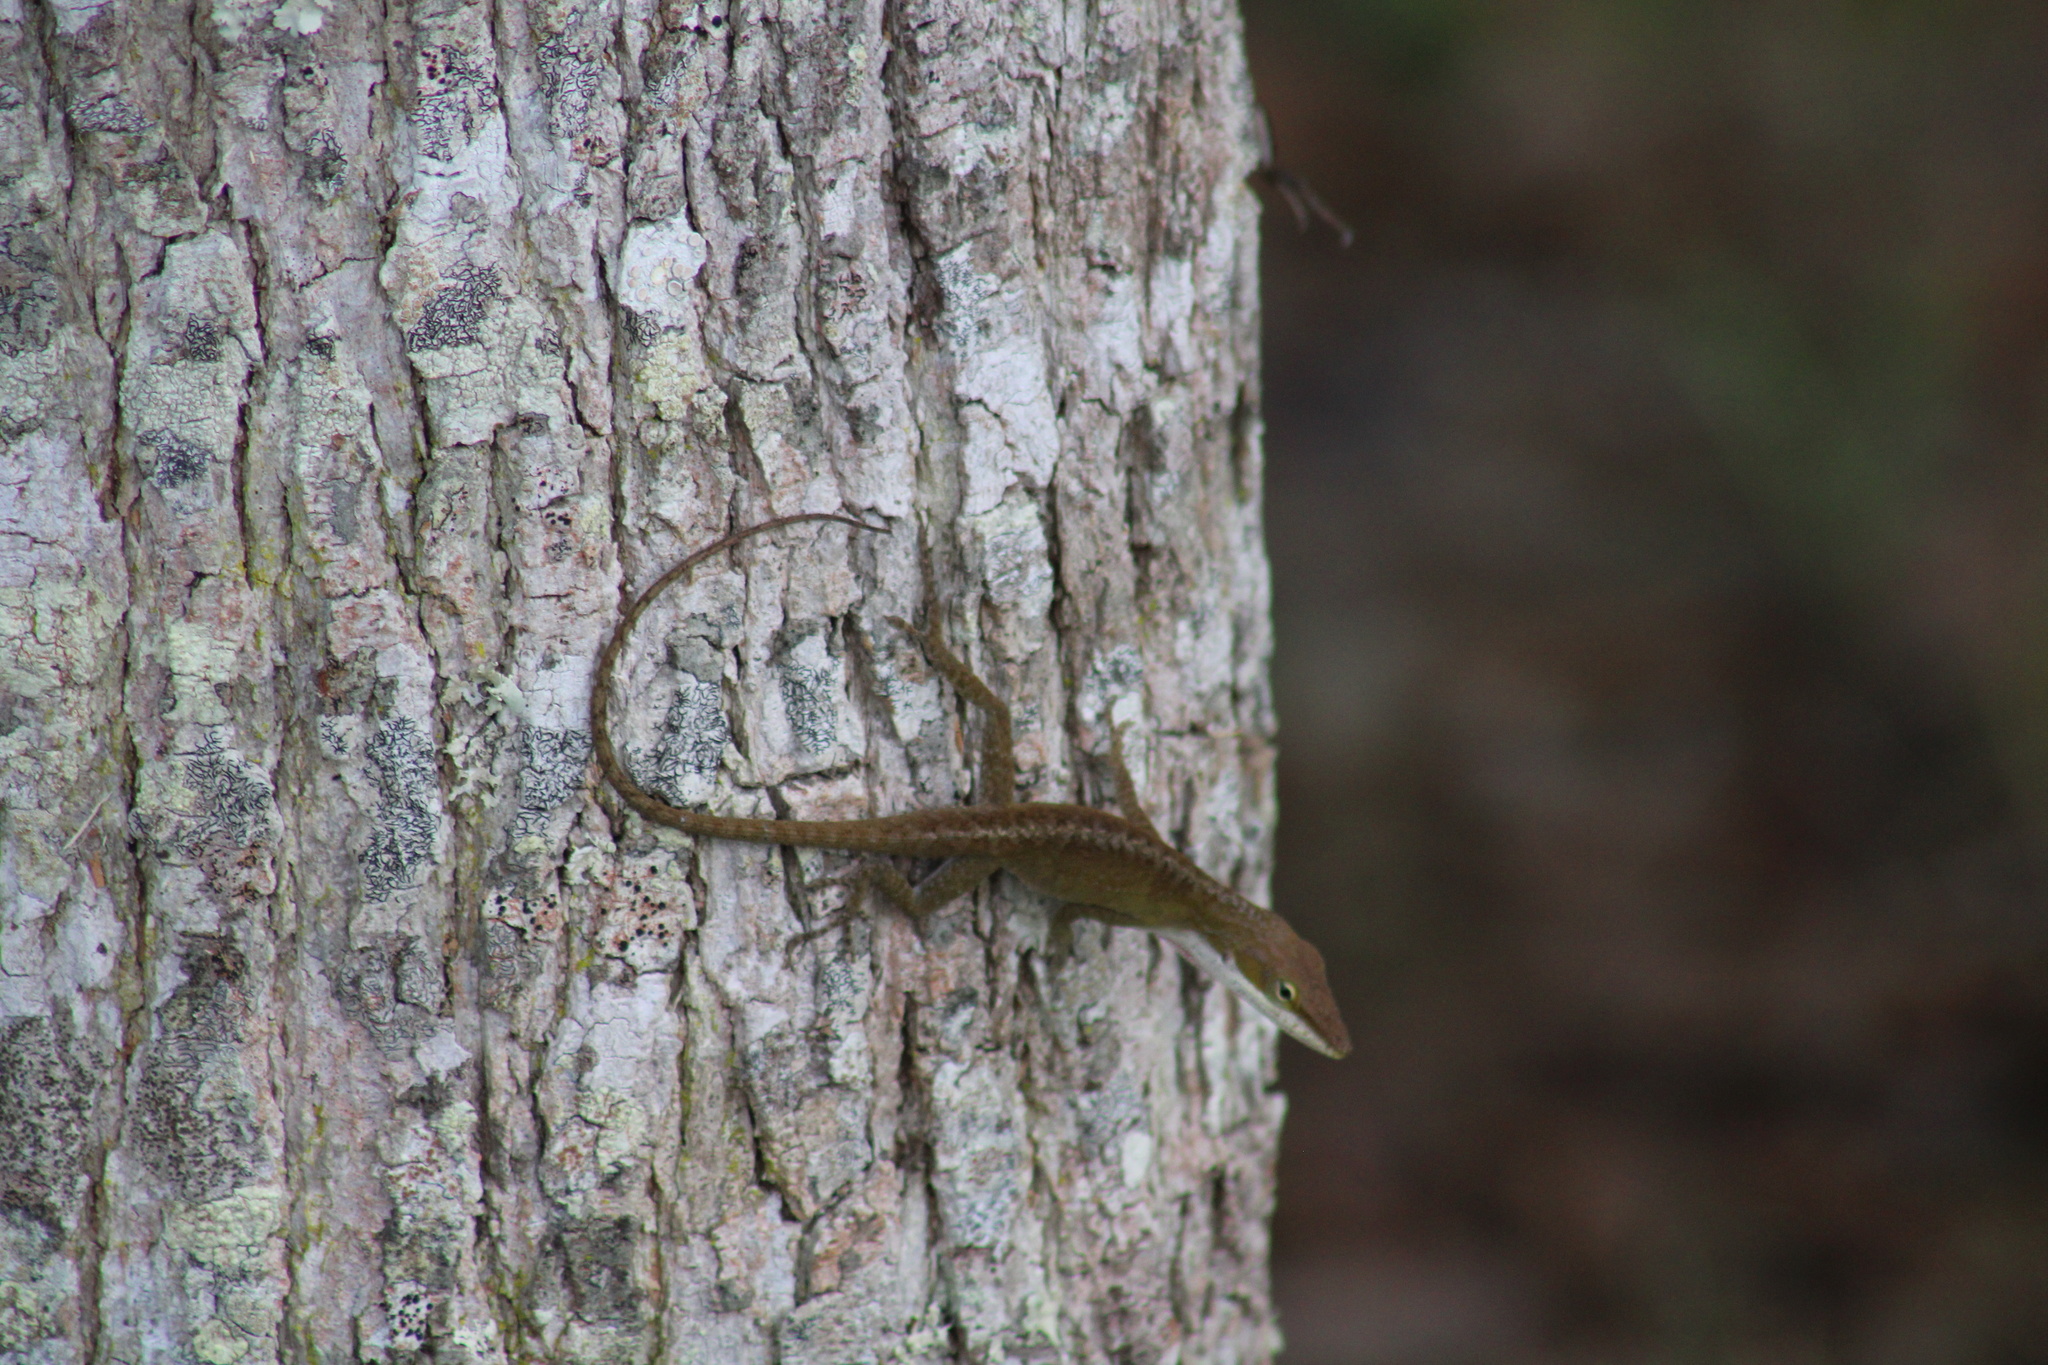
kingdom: Animalia
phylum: Chordata
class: Squamata
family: Dactyloidae
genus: Anolis
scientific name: Anolis carolinensis
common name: Green anole
